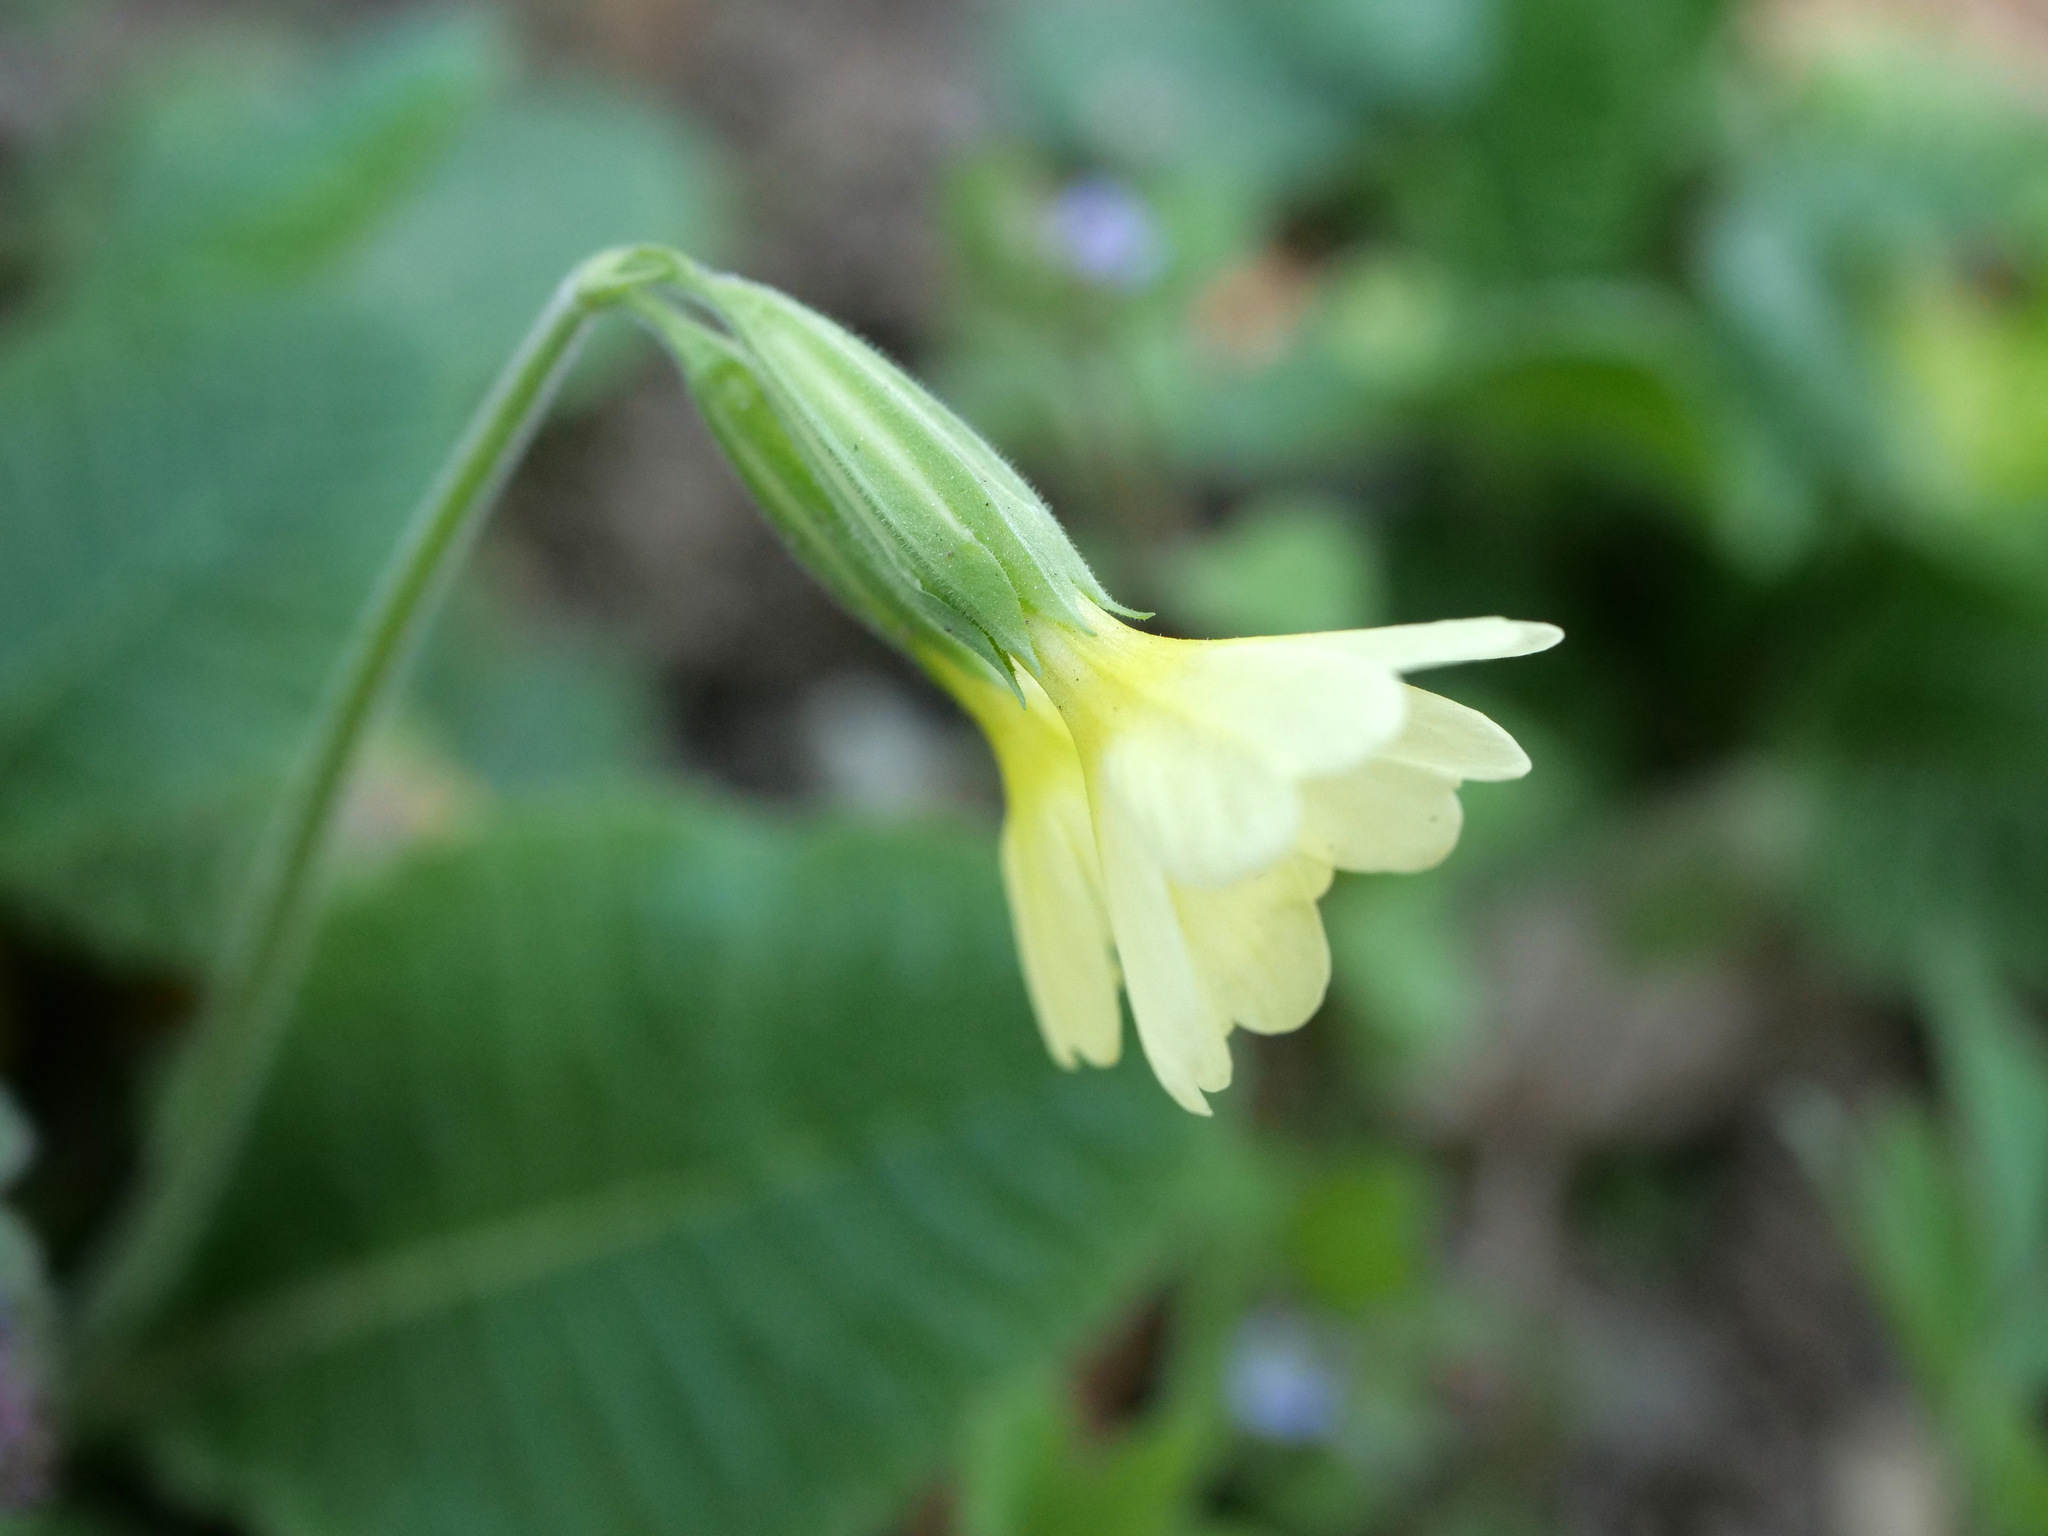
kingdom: Plantae
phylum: Tracheophyta
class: Magnoliopsida
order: Ericales
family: Primulaceae
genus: Primula
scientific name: Primula elatior
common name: Oxlip
